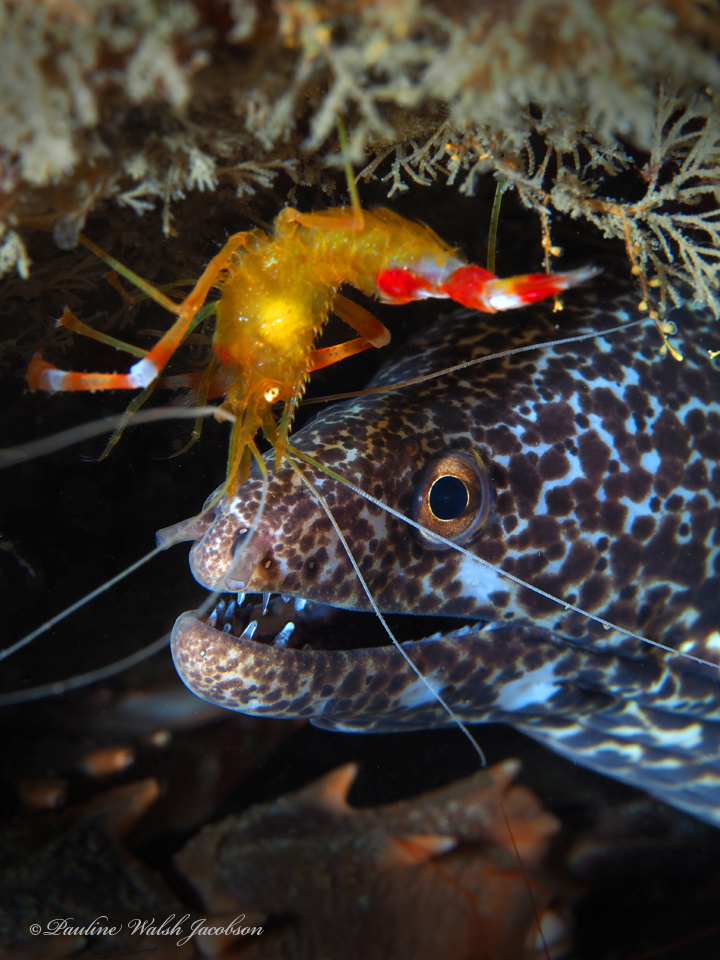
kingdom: Animalia
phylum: Arthropoda
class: Malacostraca
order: Decapoda
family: Stenopodidae
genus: Stenopus
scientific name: Stenopus scutellatus
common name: Golden coral shrimp
